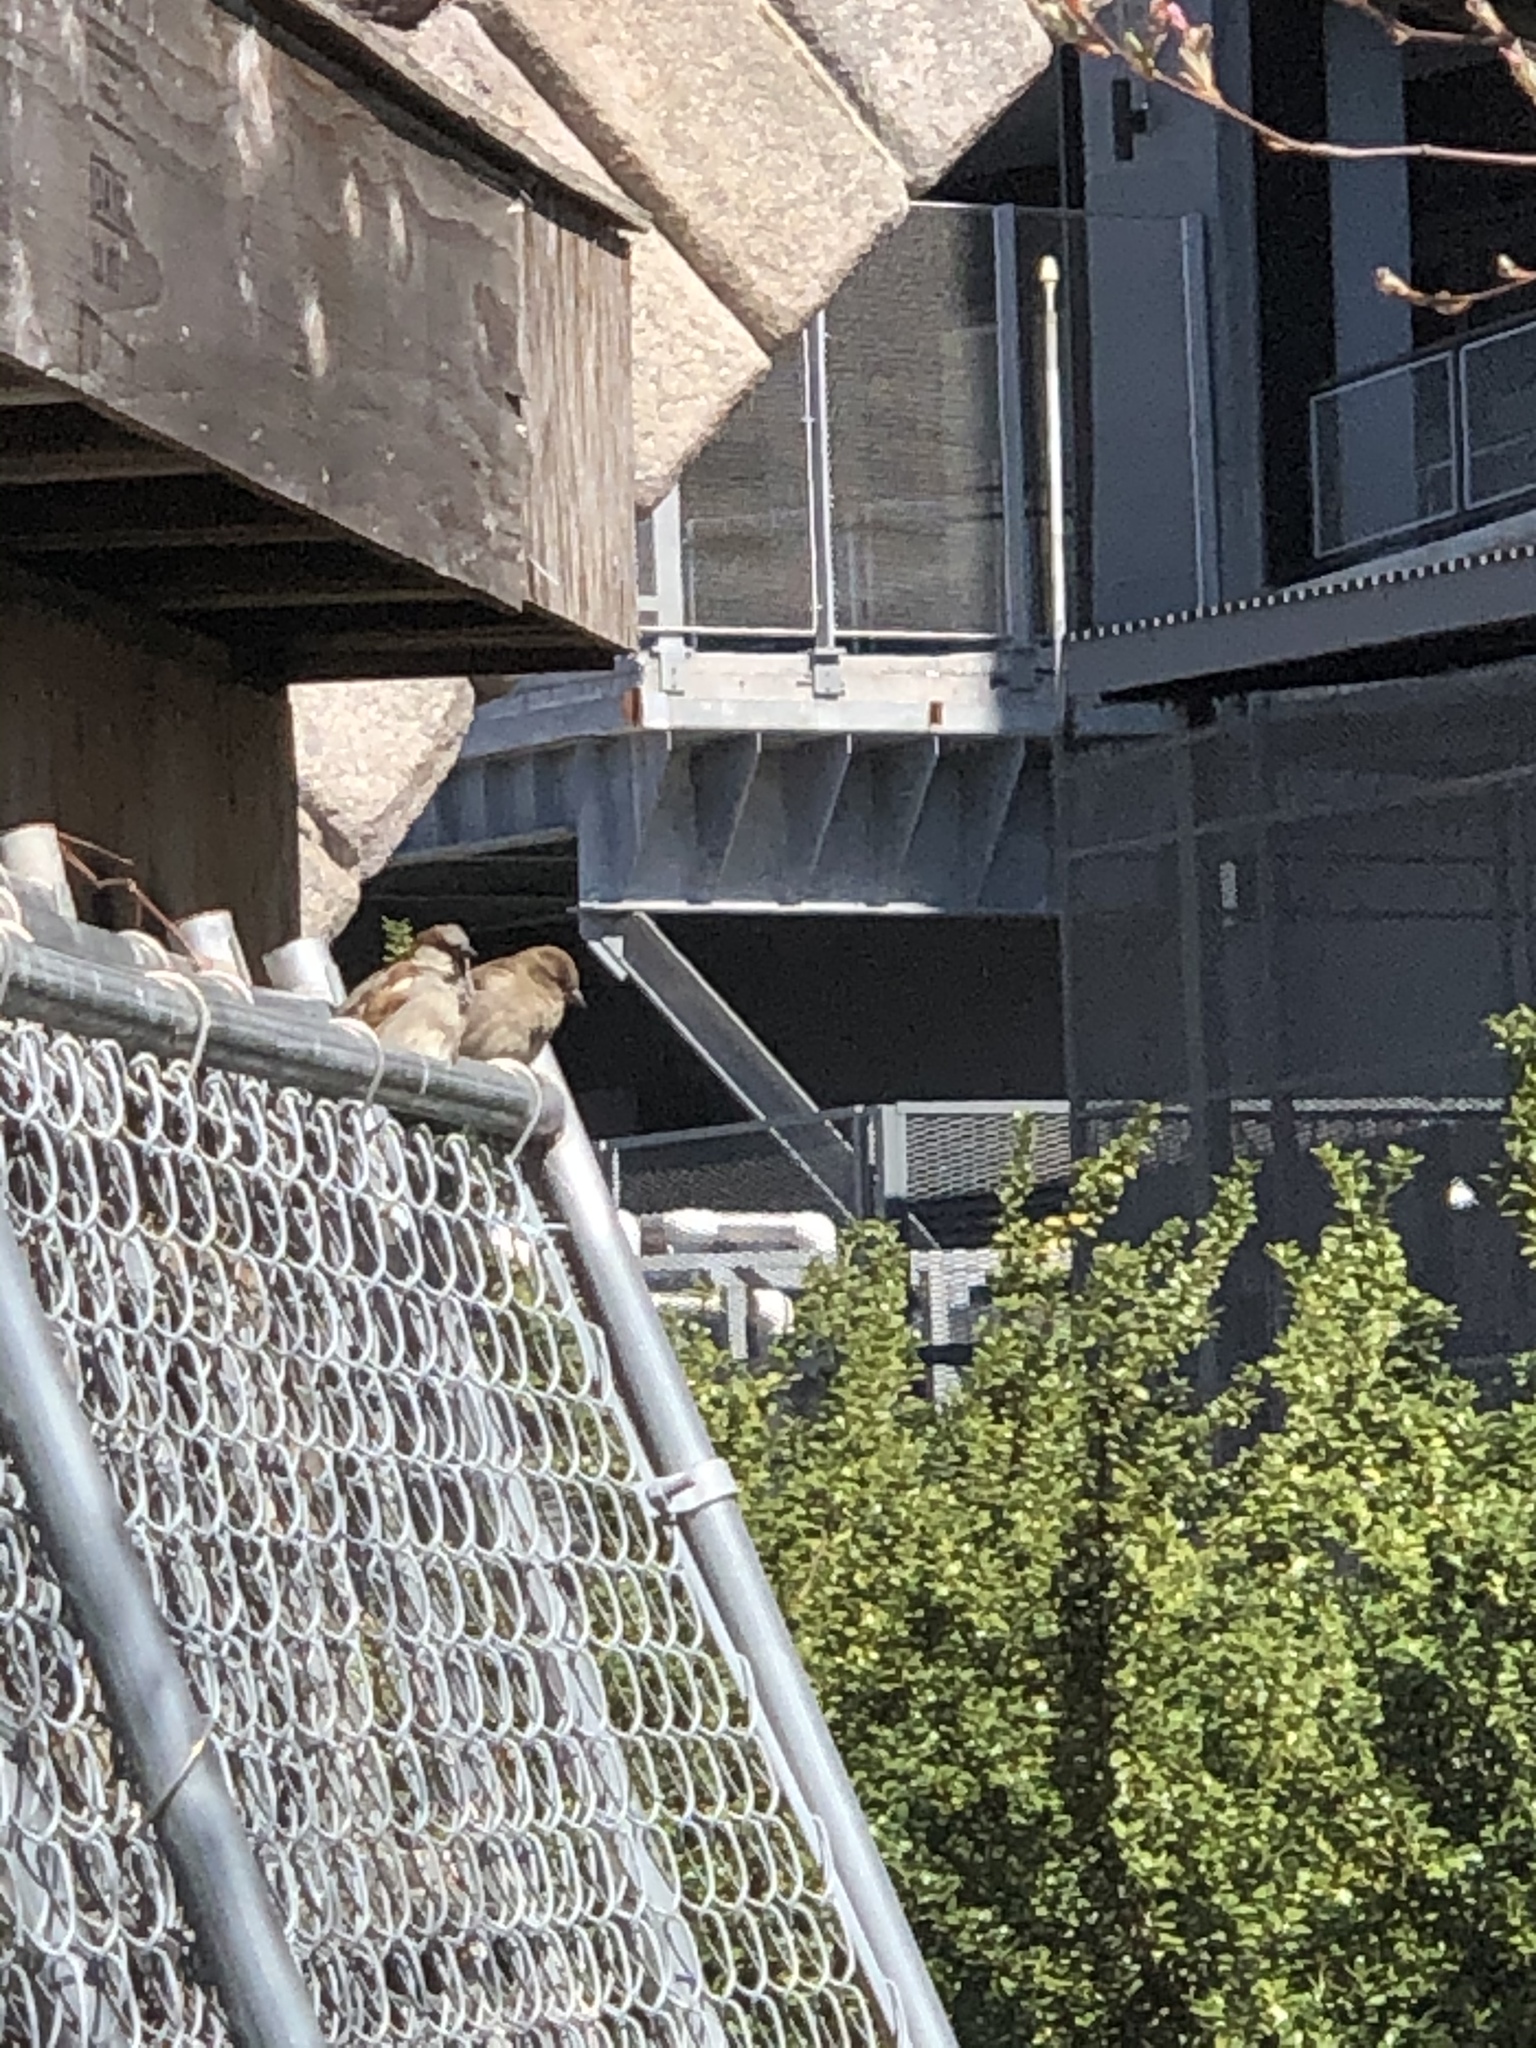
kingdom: Animalia
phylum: Chordata
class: Aves
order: Passeriformes
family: Passeridae
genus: Passer
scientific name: Passer domesticus
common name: House sparrow
